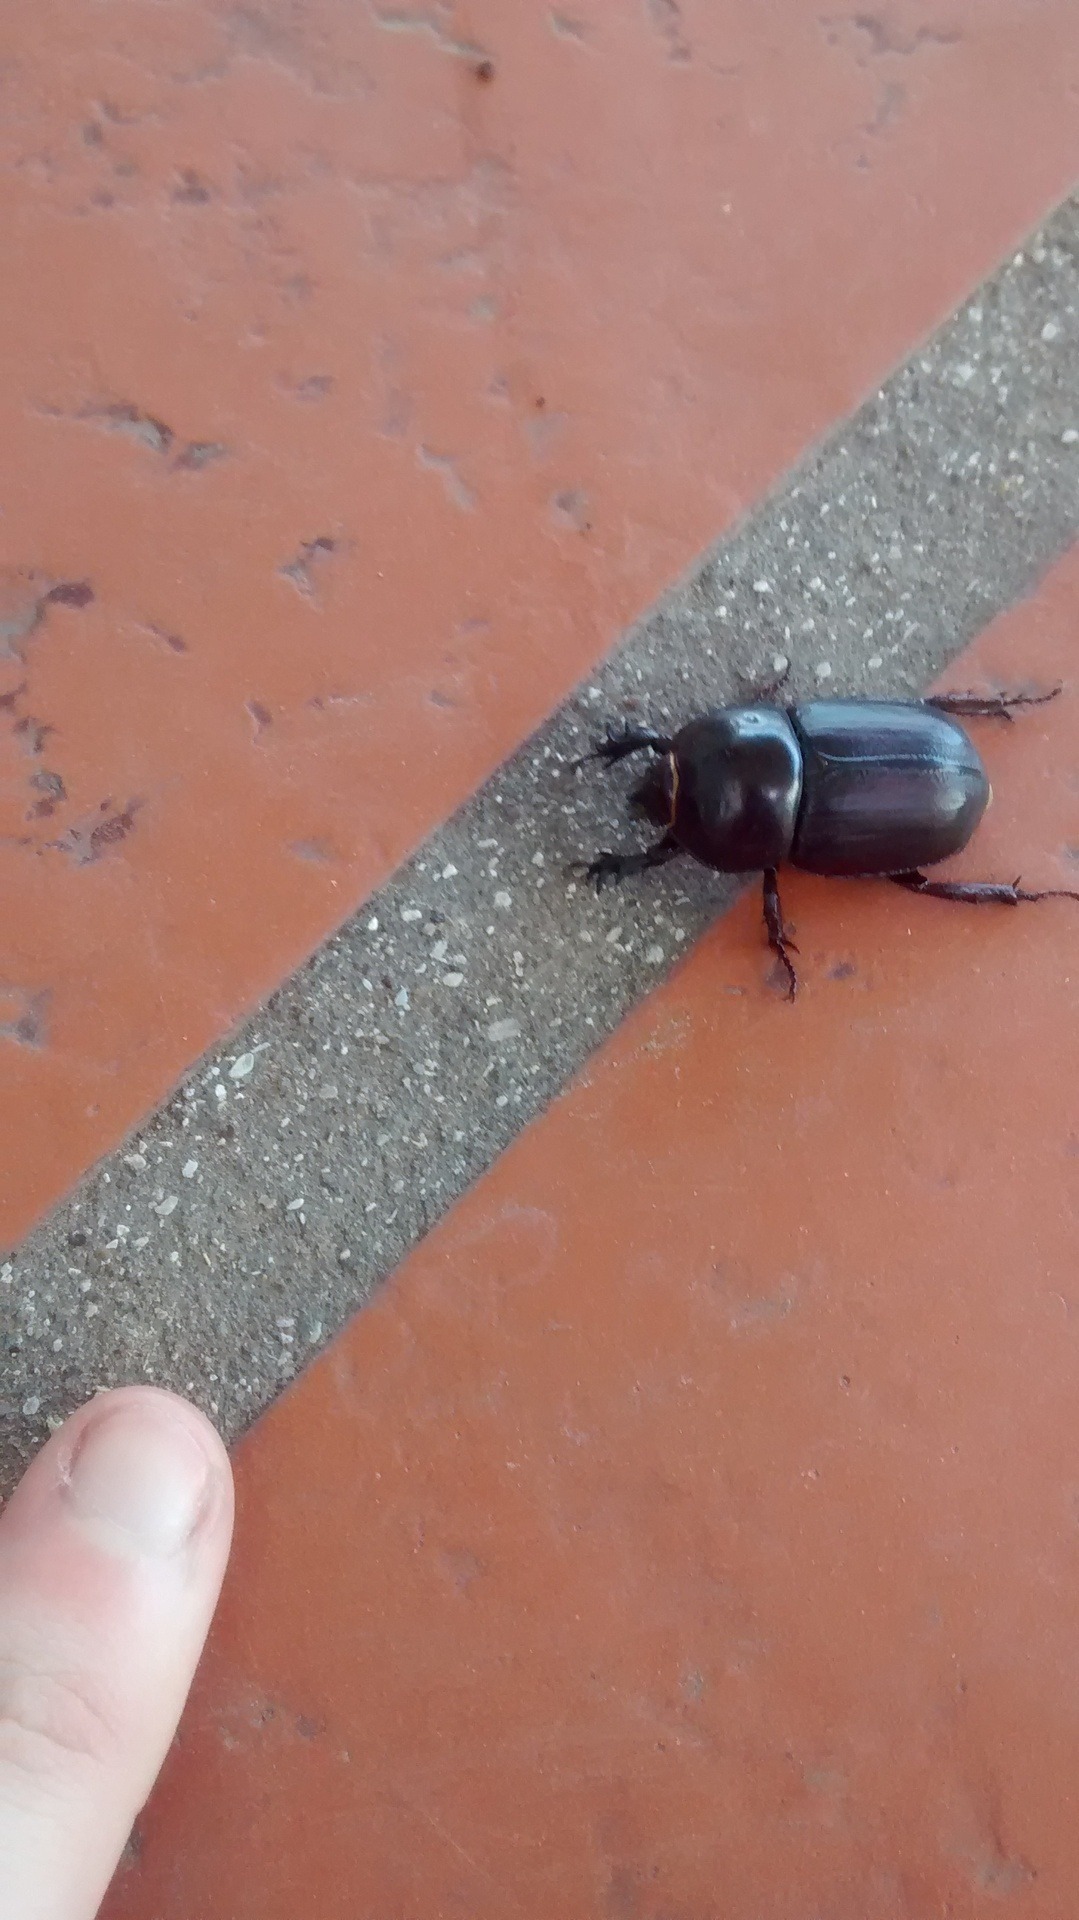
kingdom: Animalia
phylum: Arthropoda
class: Insecta
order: Coleoptera
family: Scarabaeidae
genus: Diloboderus
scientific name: Diloboderus abderus
